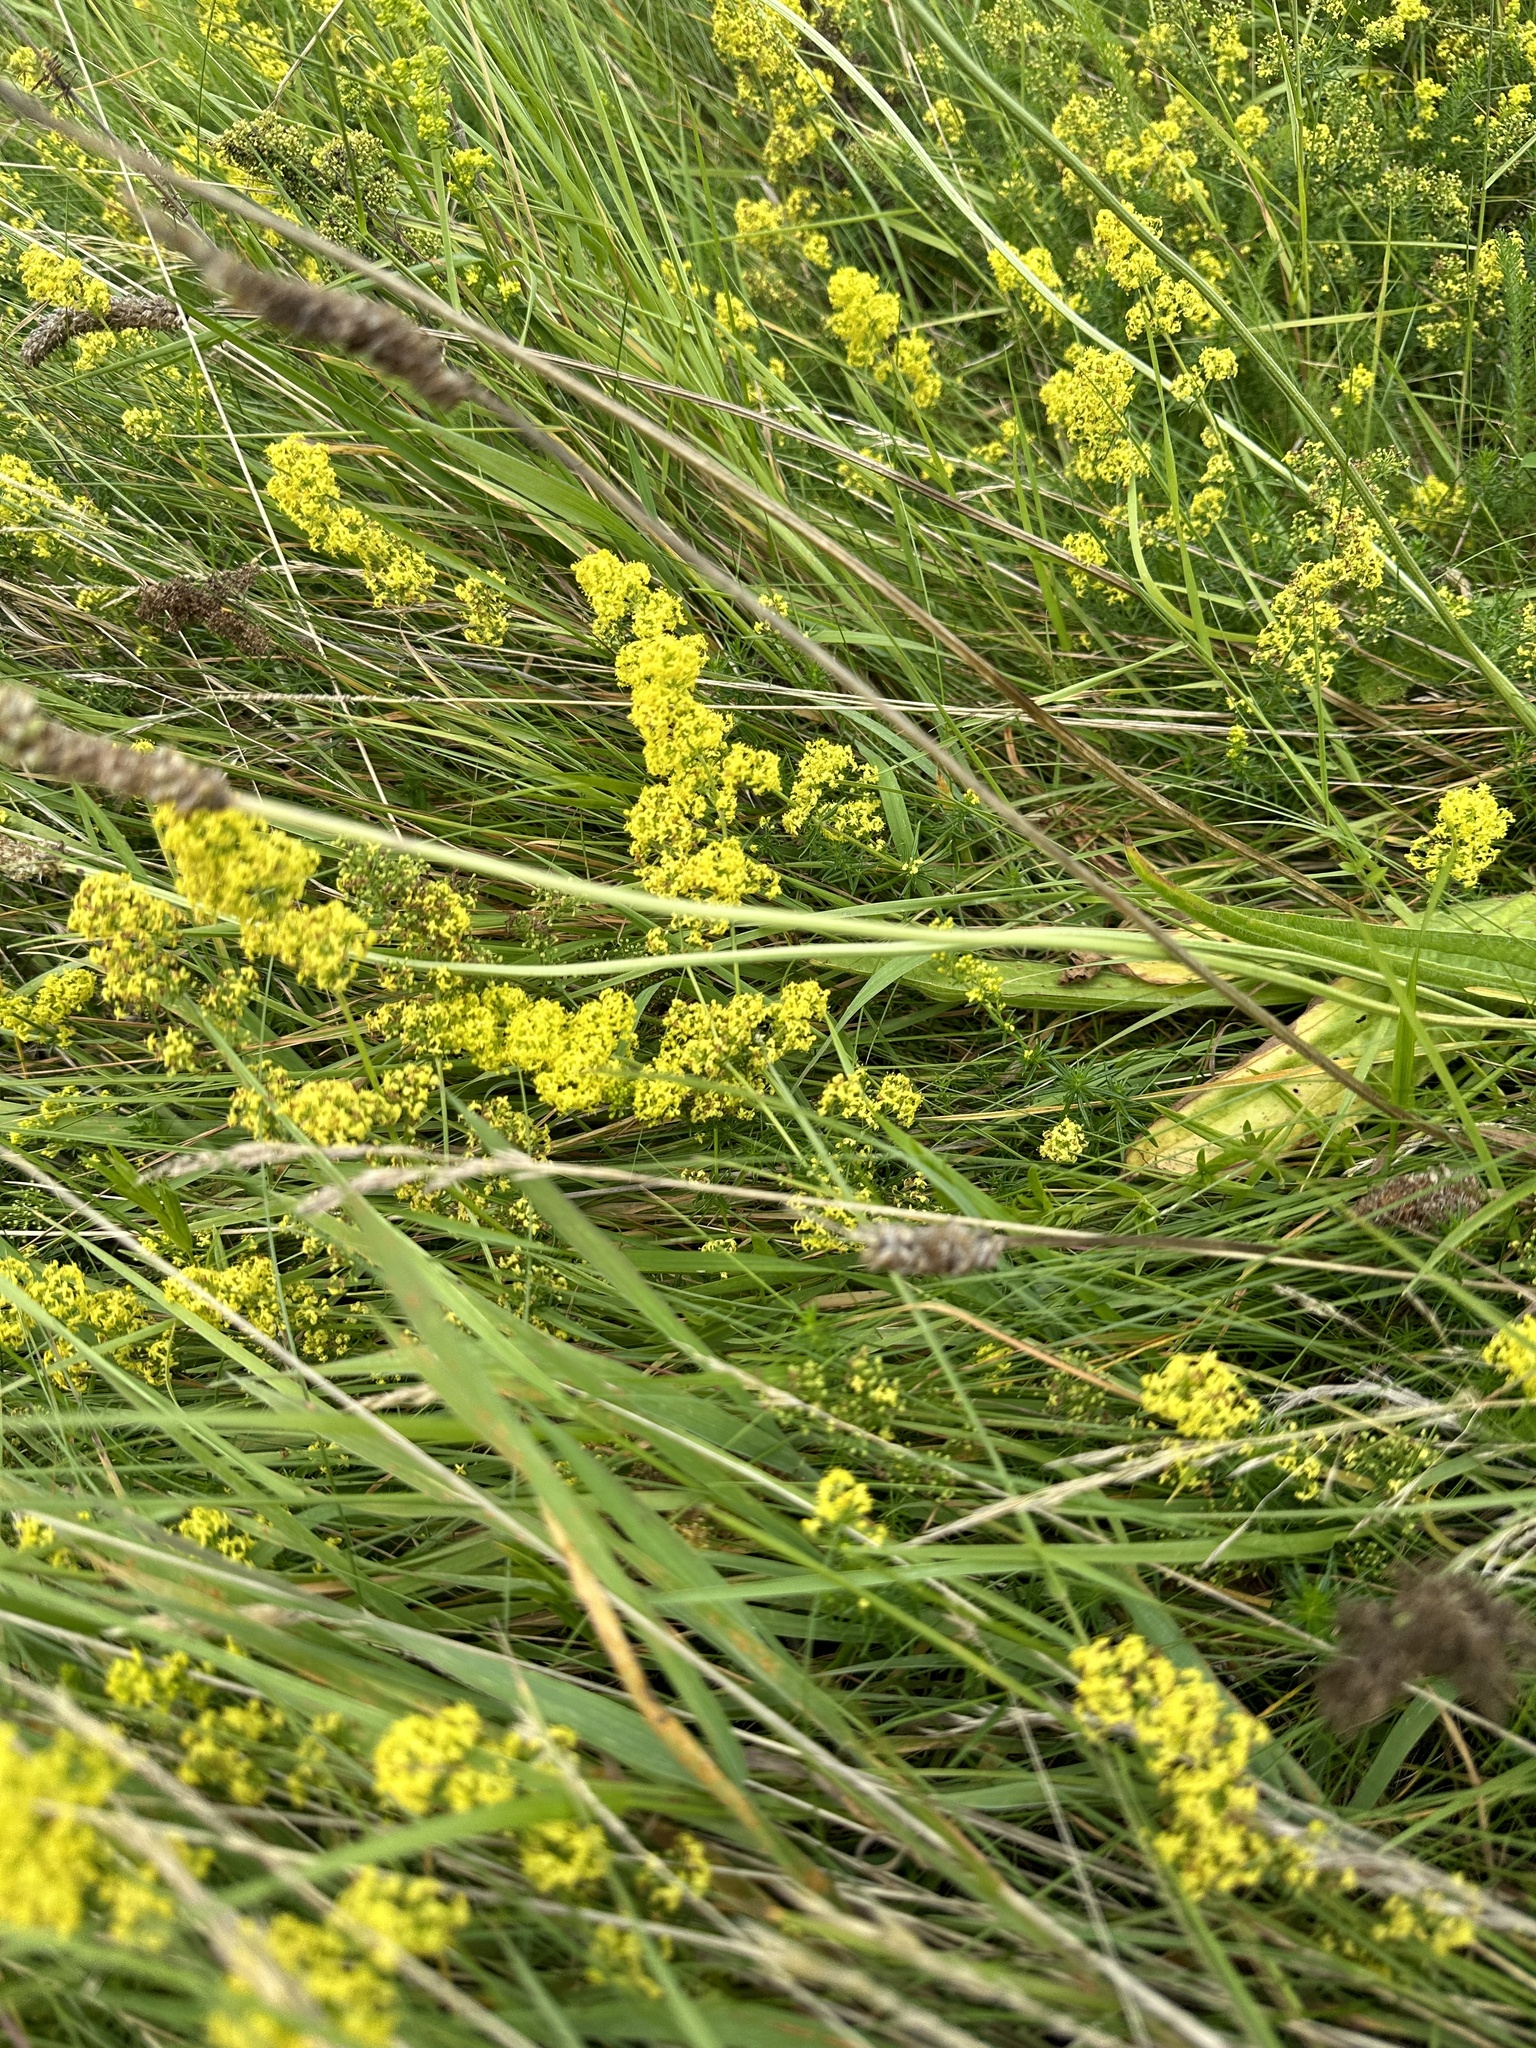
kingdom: Plantae
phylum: Tracheophyta
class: Magnoliopsida
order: Gentianales
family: Rubiaceae
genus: Galium
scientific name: Galium verum
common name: Lady's bedstraw
